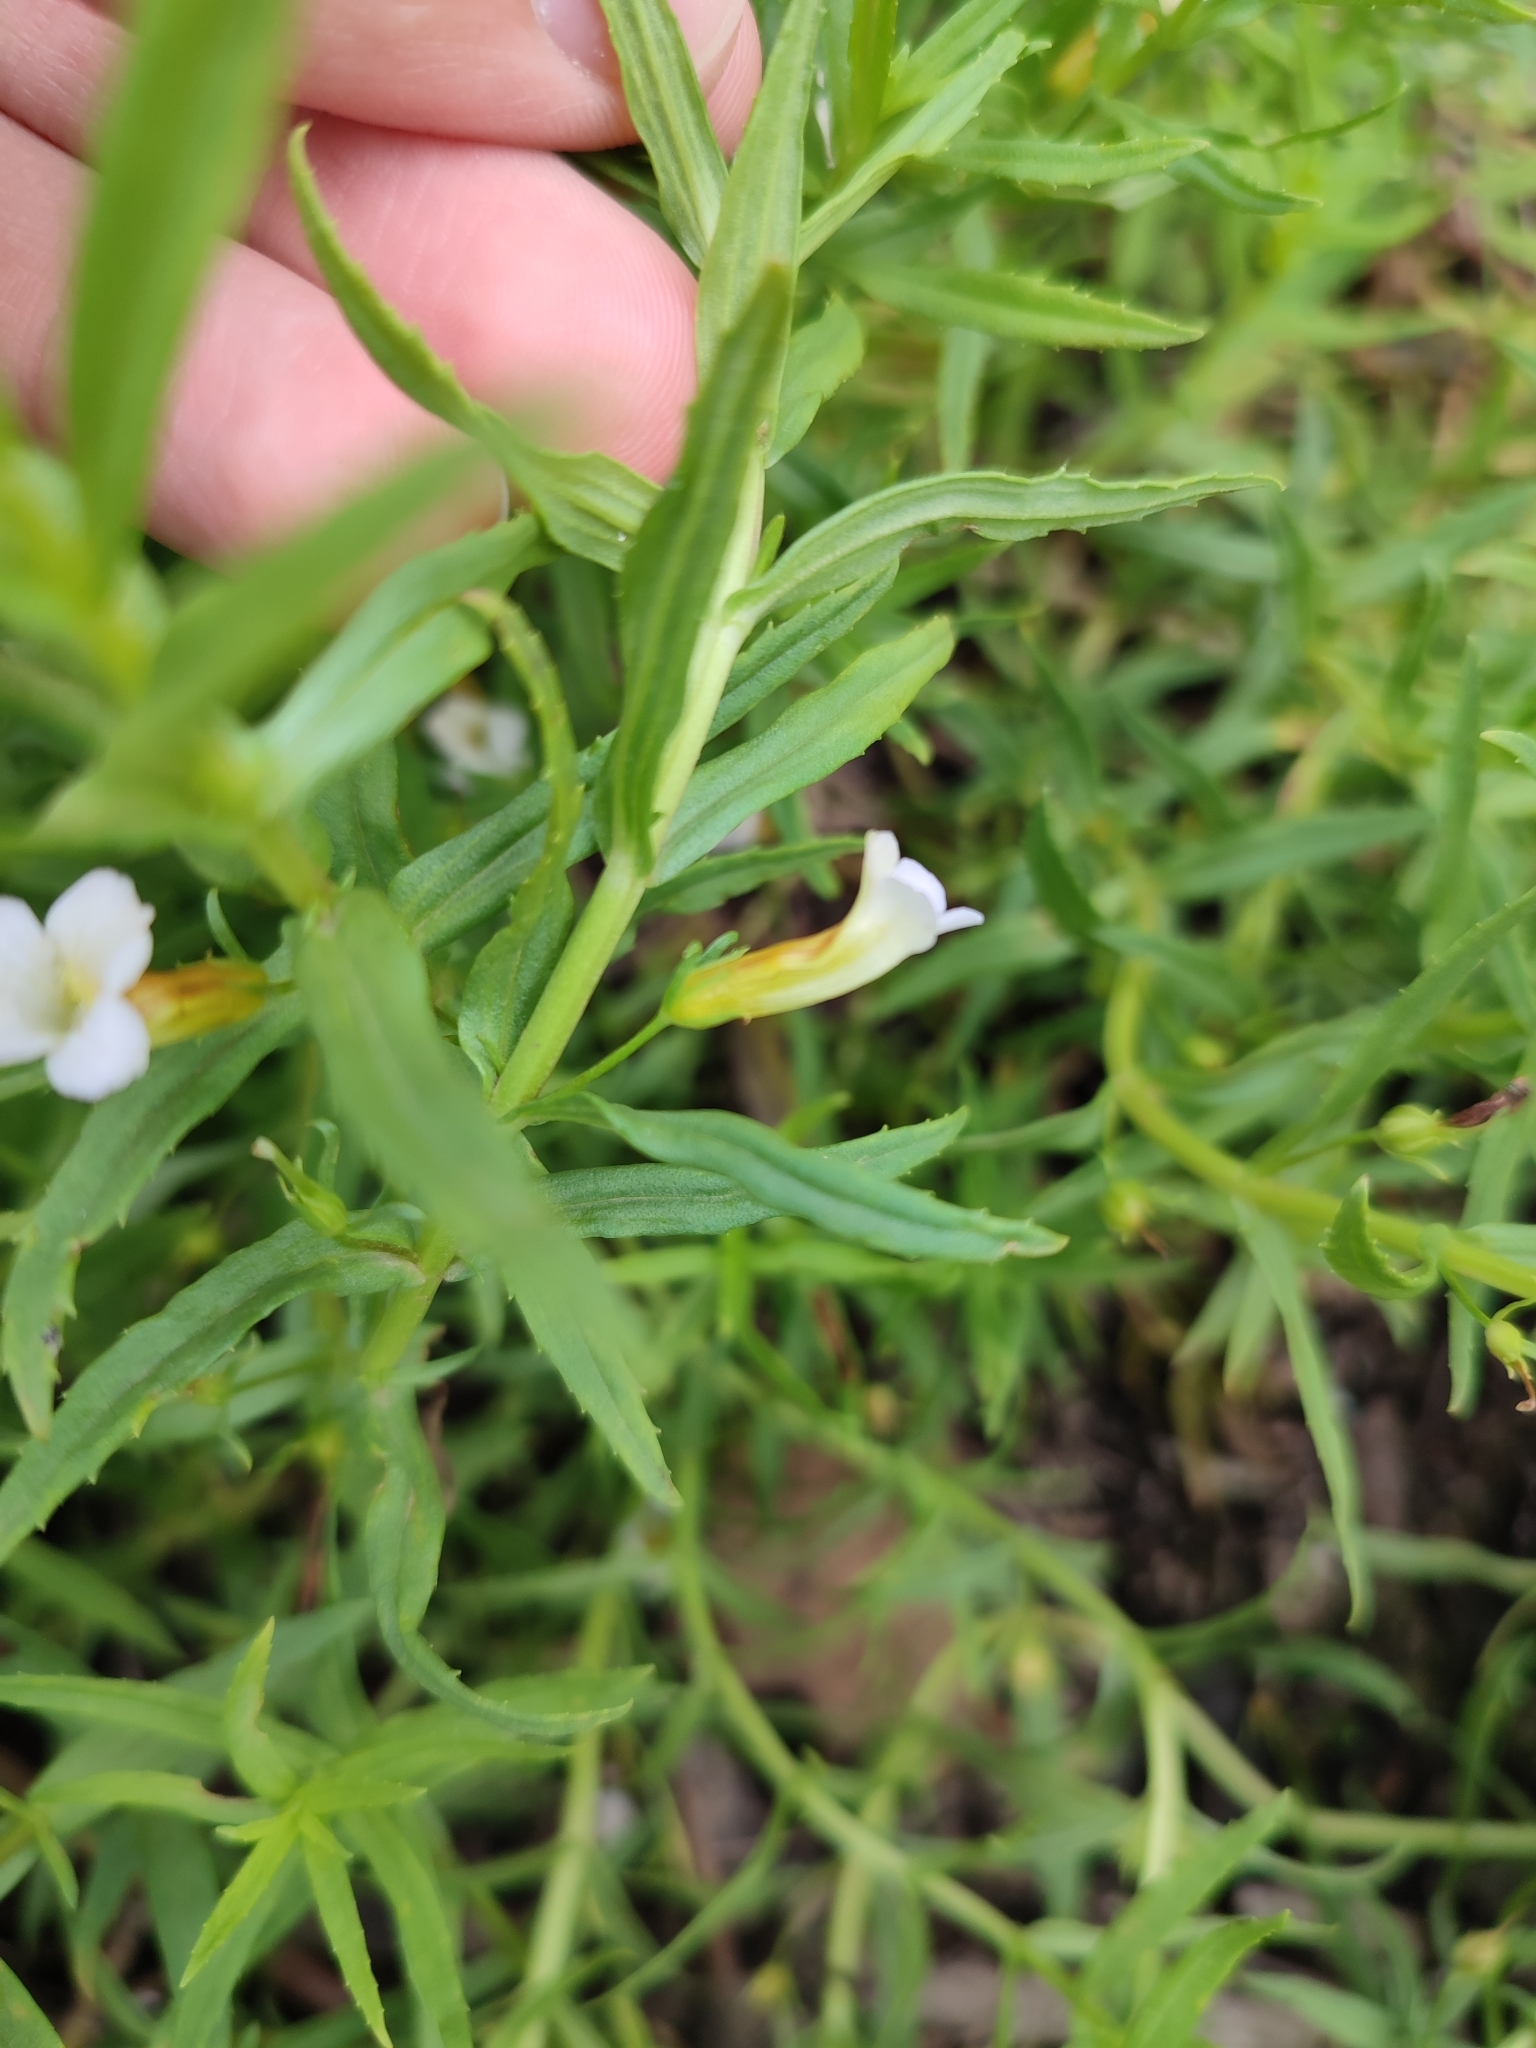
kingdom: Plantae
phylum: Tracheophyta
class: Magnoliopsida
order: Lamiales
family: Plantaginaceae
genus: Gratiola
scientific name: Gratiola officinalis
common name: Gratiola
